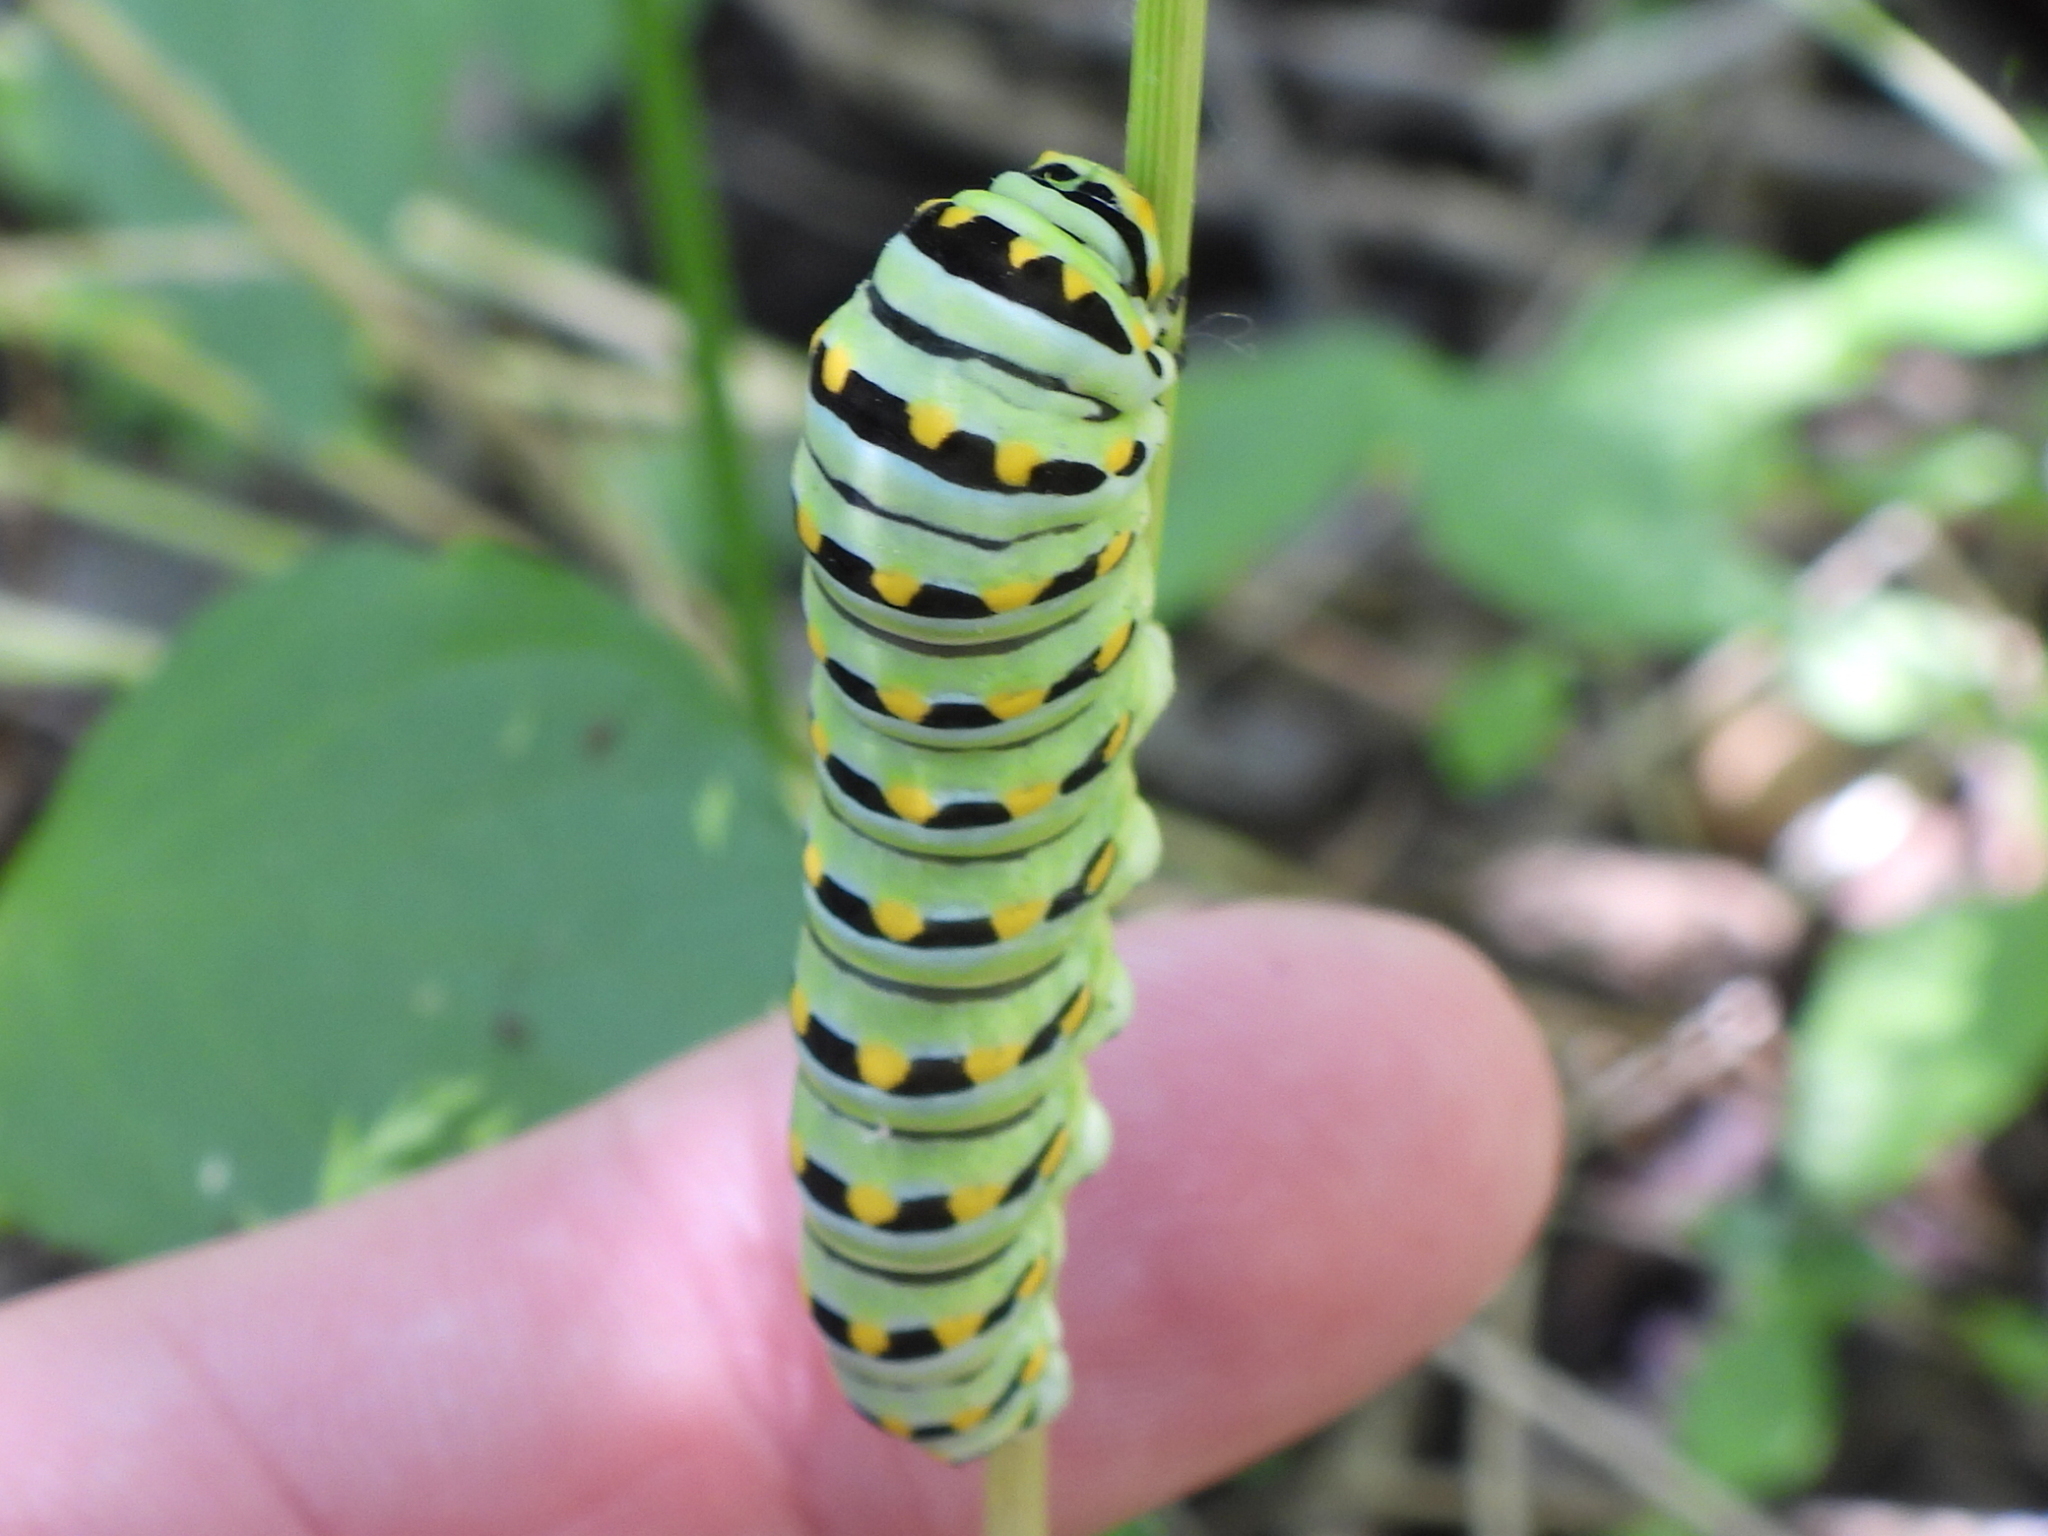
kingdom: Animalia
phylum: Arthropoda
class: Insecta
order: Lepidoptera
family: Papilionidae
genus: Papilio
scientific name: Papilio polyxenes
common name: Black swallowtail
